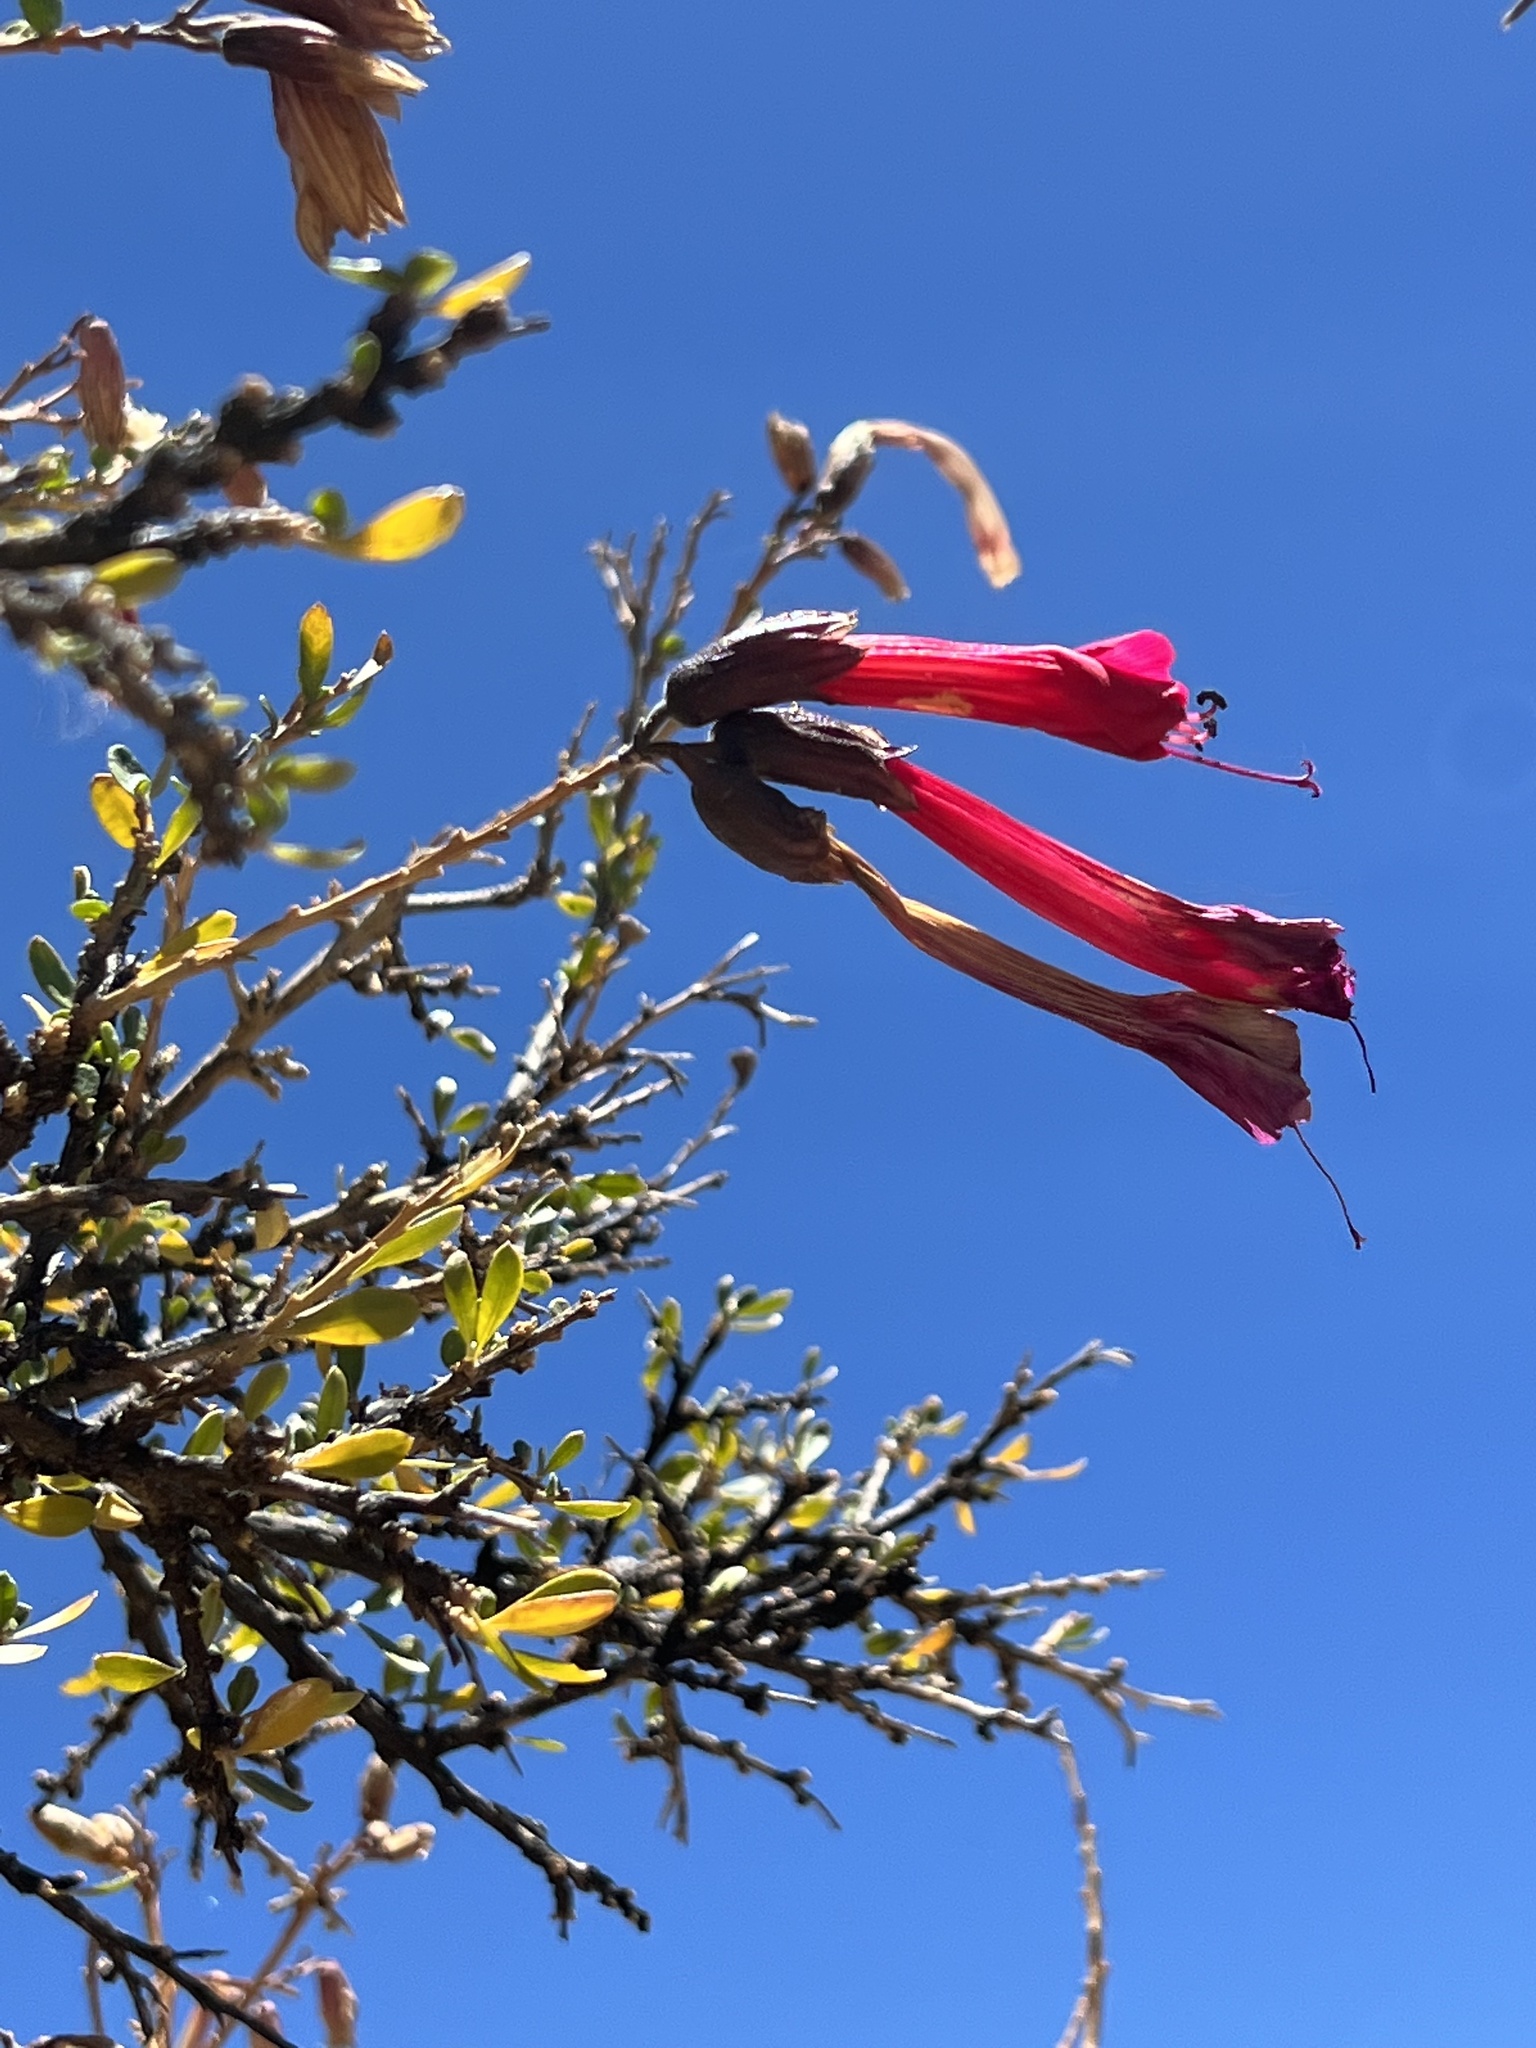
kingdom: Plantae
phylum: Tracheophyta
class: Magnoliopsida
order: Ericales
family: Polemoniaceae
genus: Cantua
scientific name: Cantua buxifolia
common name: Sacred-flower-of-the-incas
